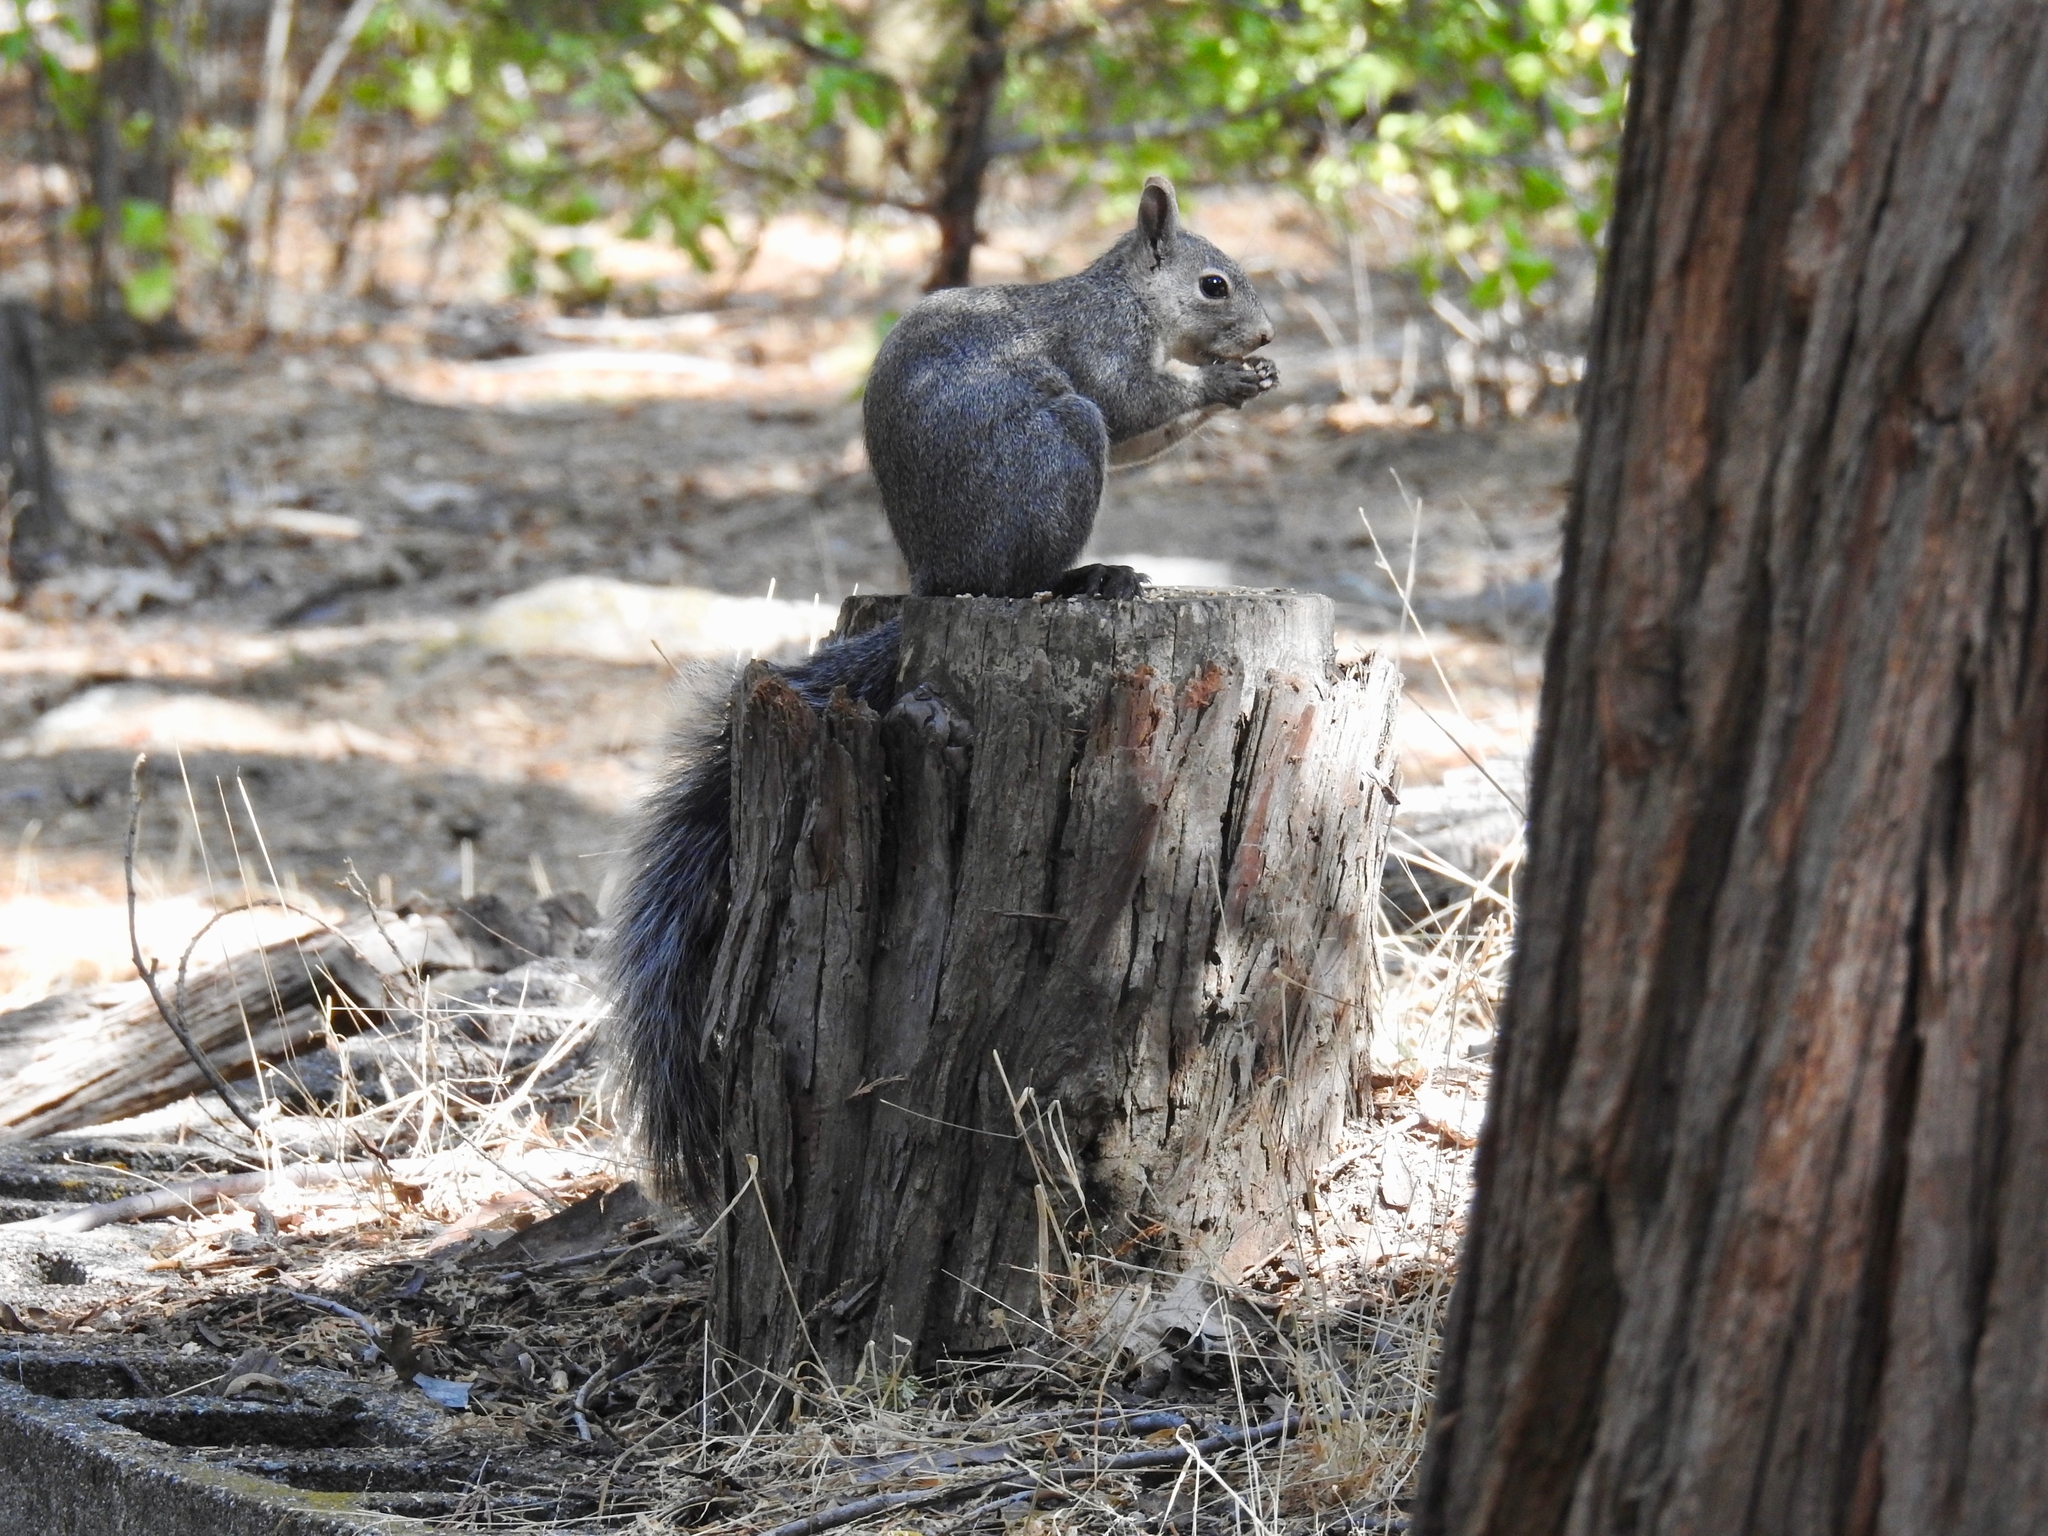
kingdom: Animalia
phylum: Chordata
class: Mammalia
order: Rodentia
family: Sciuridae
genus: Sciurus
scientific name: Sciurus griseus
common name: Western gray squirrel
